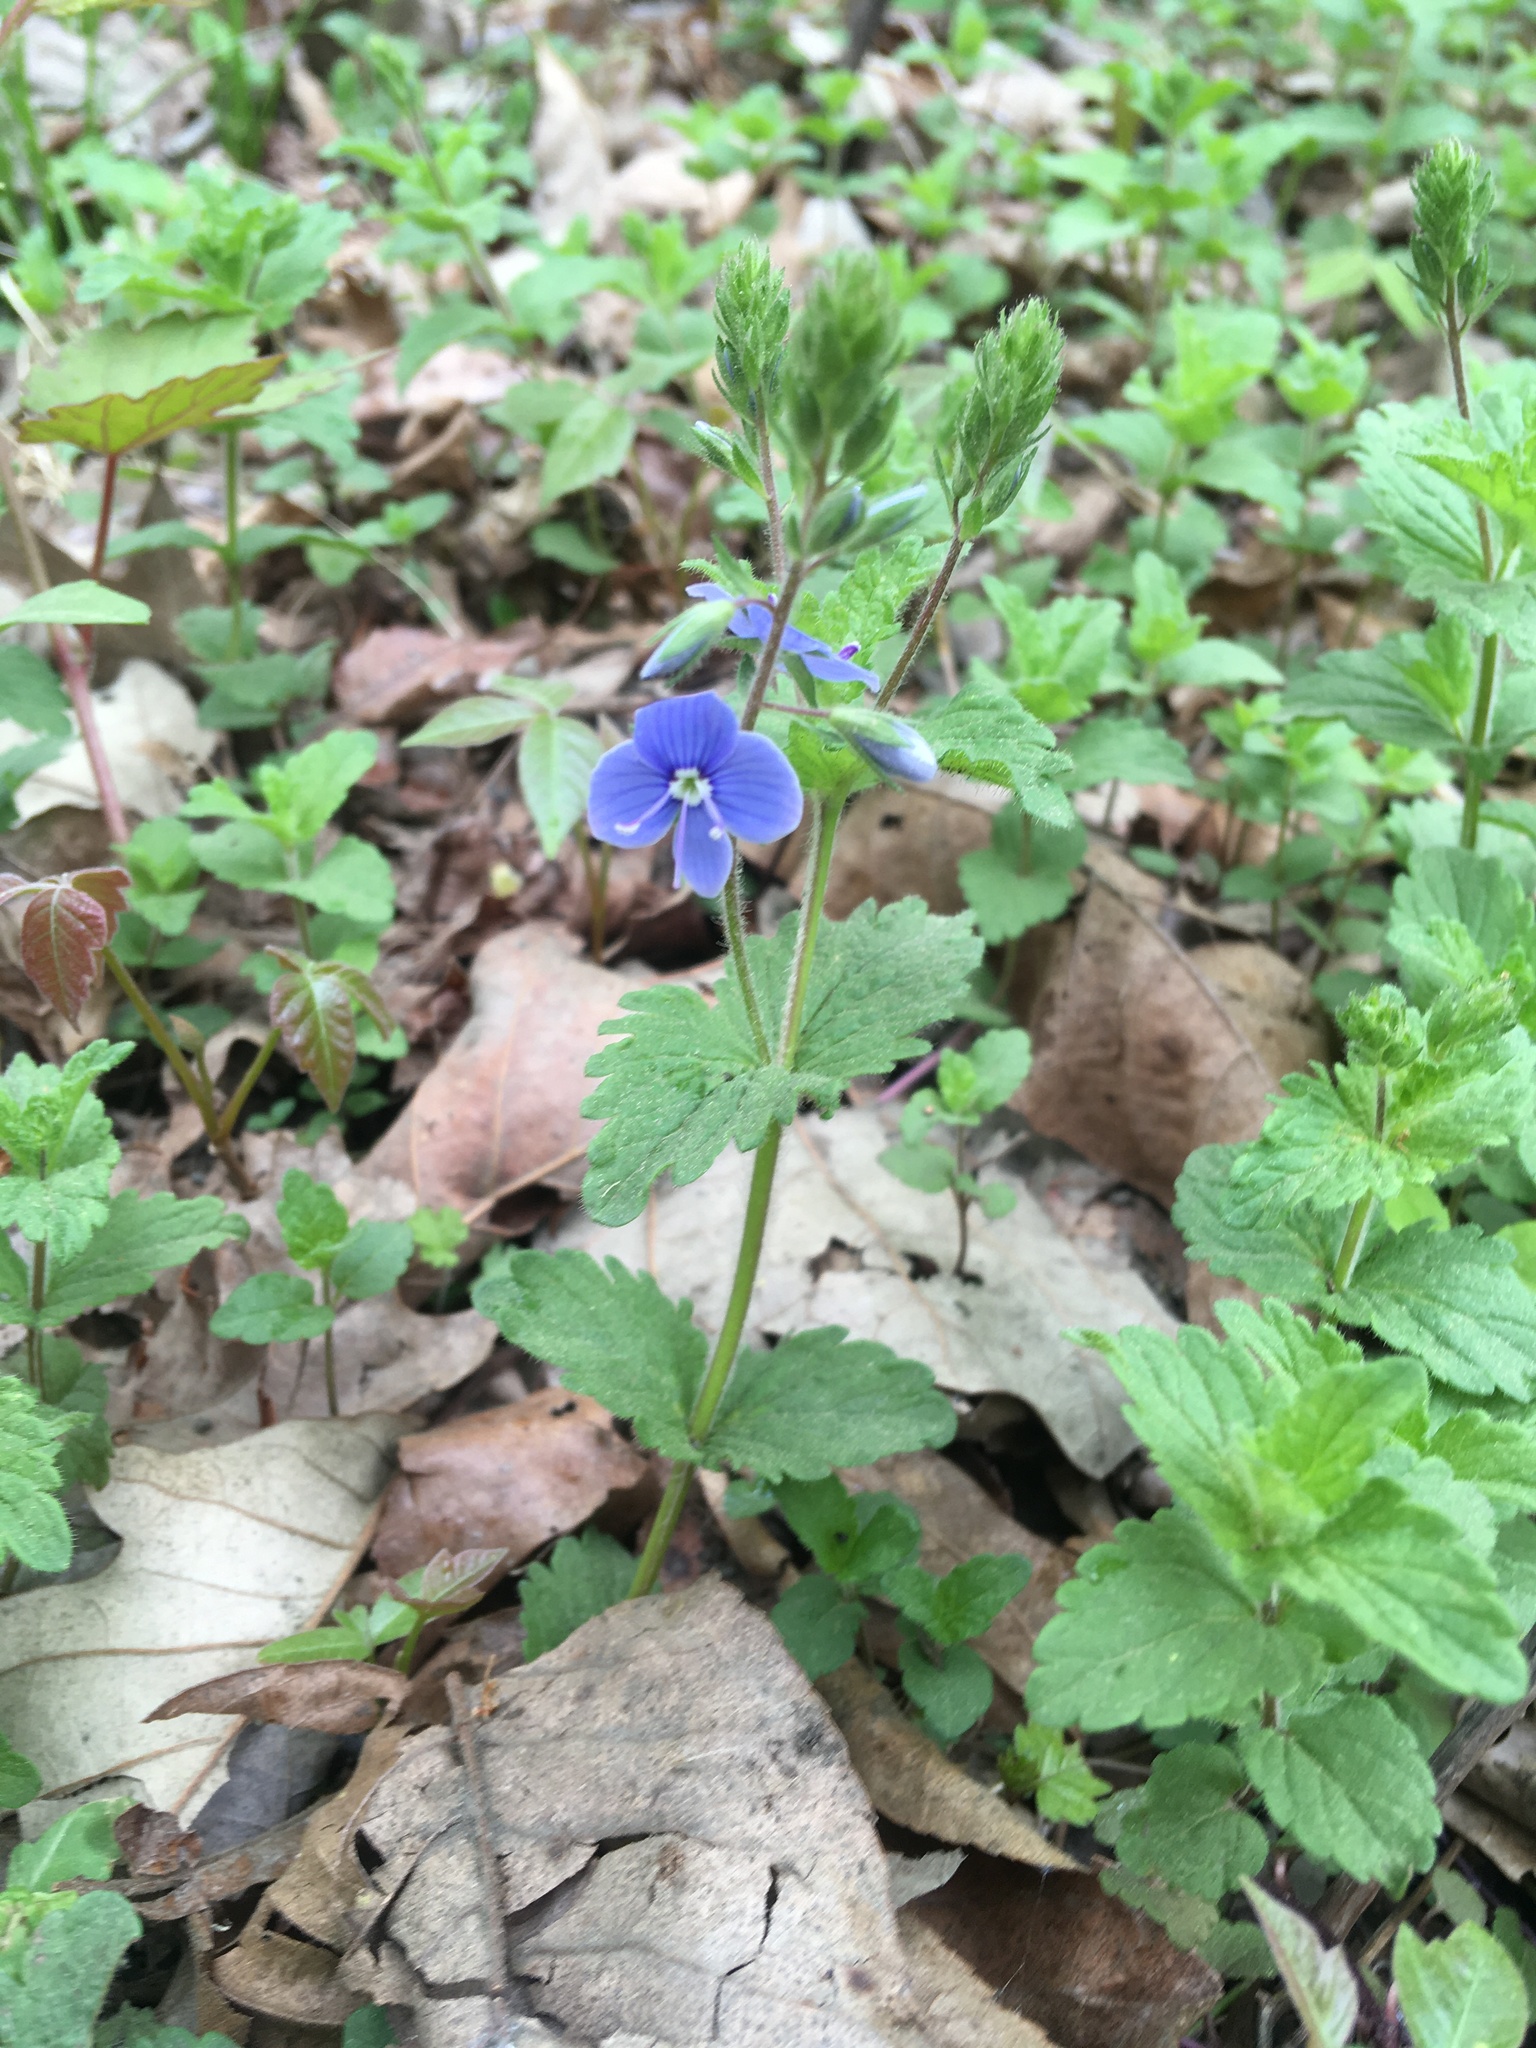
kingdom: Plantae
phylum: Tracheophyta
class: Magnoliopsida
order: Lamiales
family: Plantaginaceae
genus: Veronica
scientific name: Veronica chamaedrys
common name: Germander speedwell
